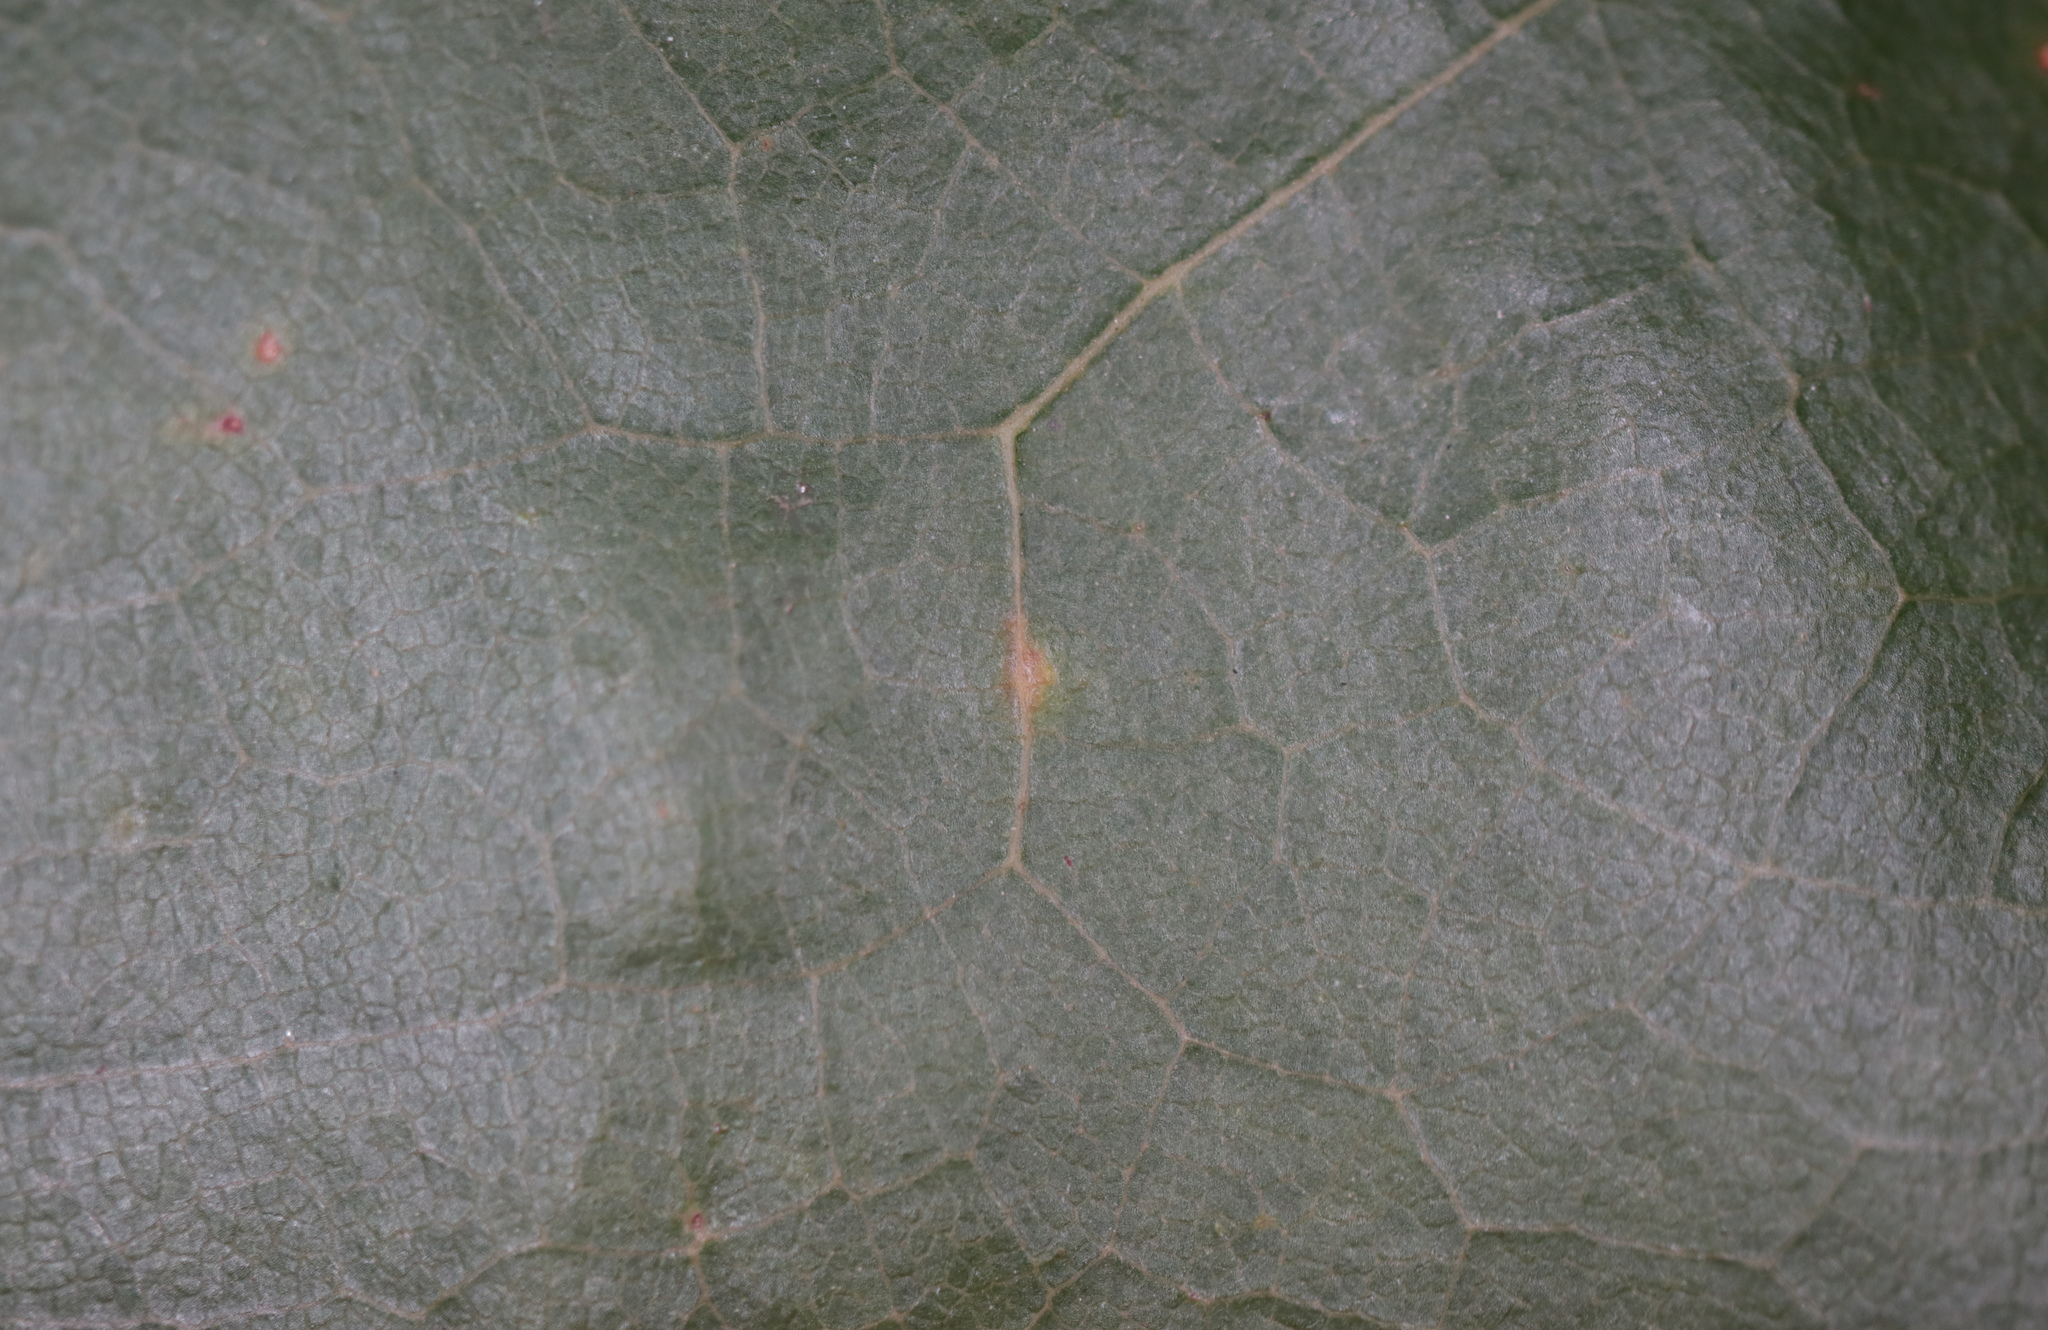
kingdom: Animalia
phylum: Arthropoda
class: Insecta
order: Hymenoptera
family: Cynipidae
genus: Zopheroteras
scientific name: Zopheroteras
